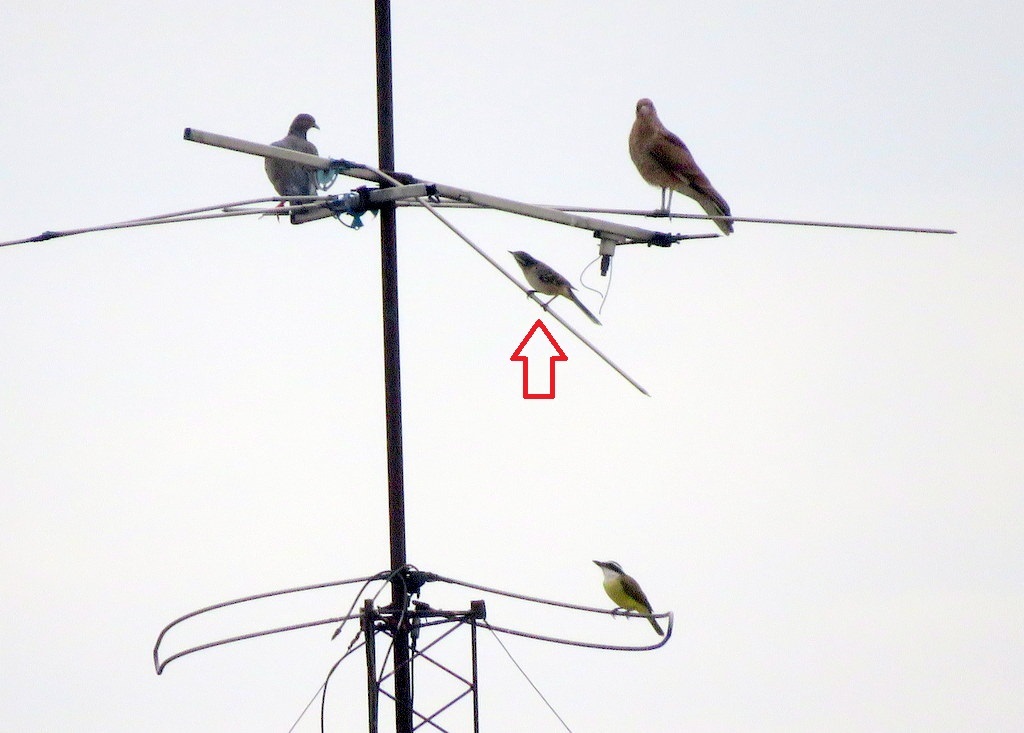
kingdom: Animalia
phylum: Chordata
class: Aves
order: Passeriformes
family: Mimidae
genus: Mimus
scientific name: Mimus saturninus
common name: Chalk-browed mockingbird
